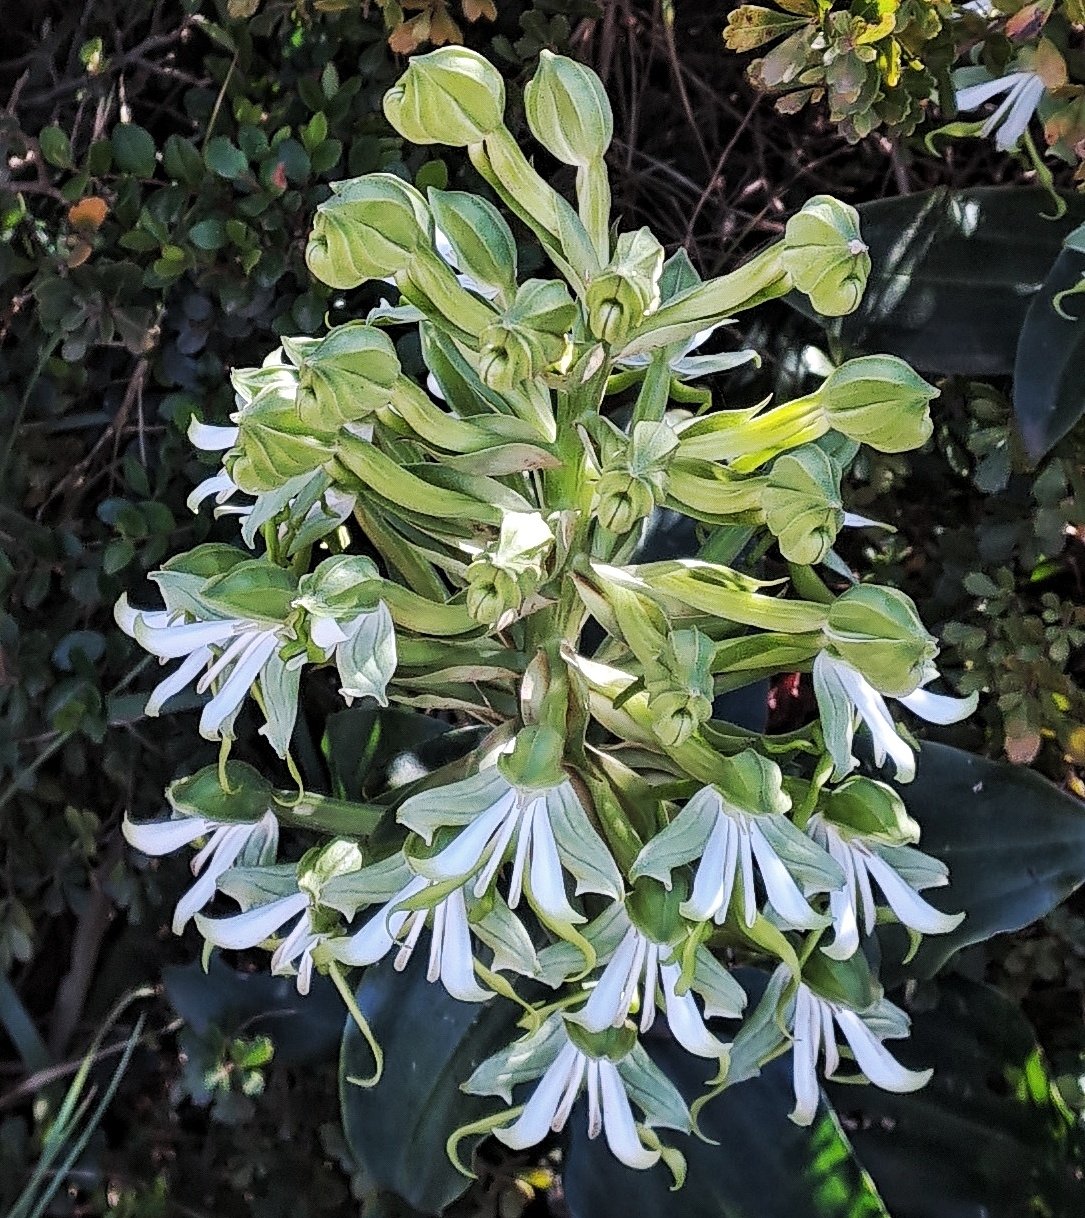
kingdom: Plantae
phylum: Tracheophyta
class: Liliopsida
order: Asparagales
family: Orchidaceae
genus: Bonatea
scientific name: Bonatea speciosa
